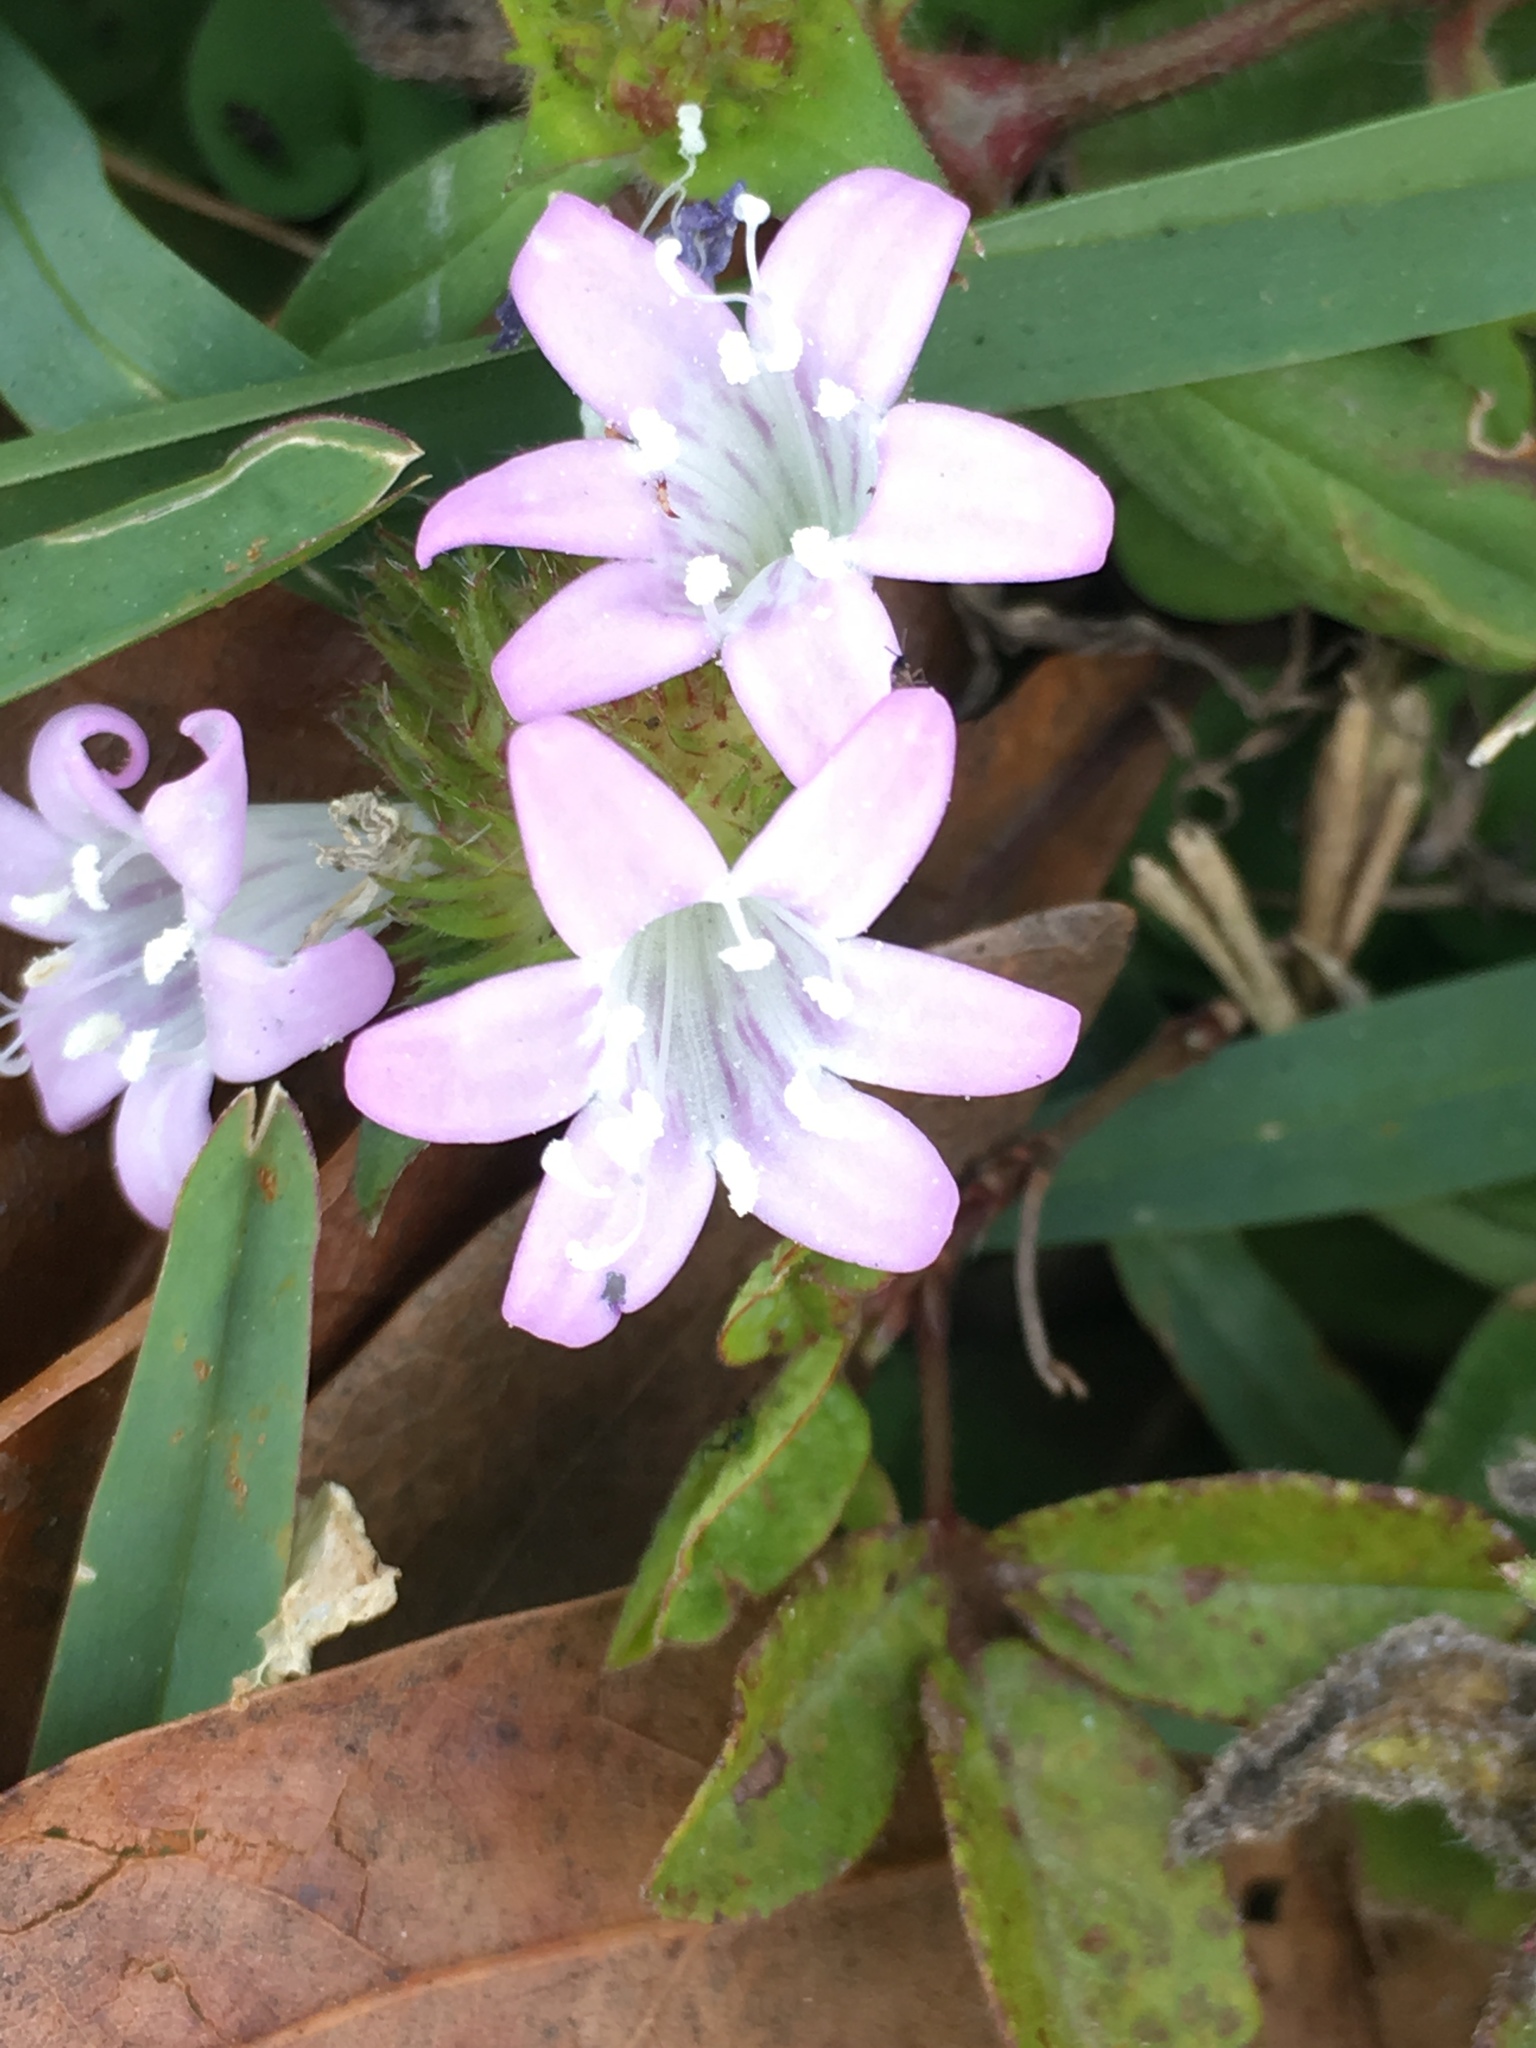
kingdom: Plantae
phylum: Tracheophyta
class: Magnoliopsida
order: Gentianales
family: Rubiaceae
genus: Richardia
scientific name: Richardia grandiflora
